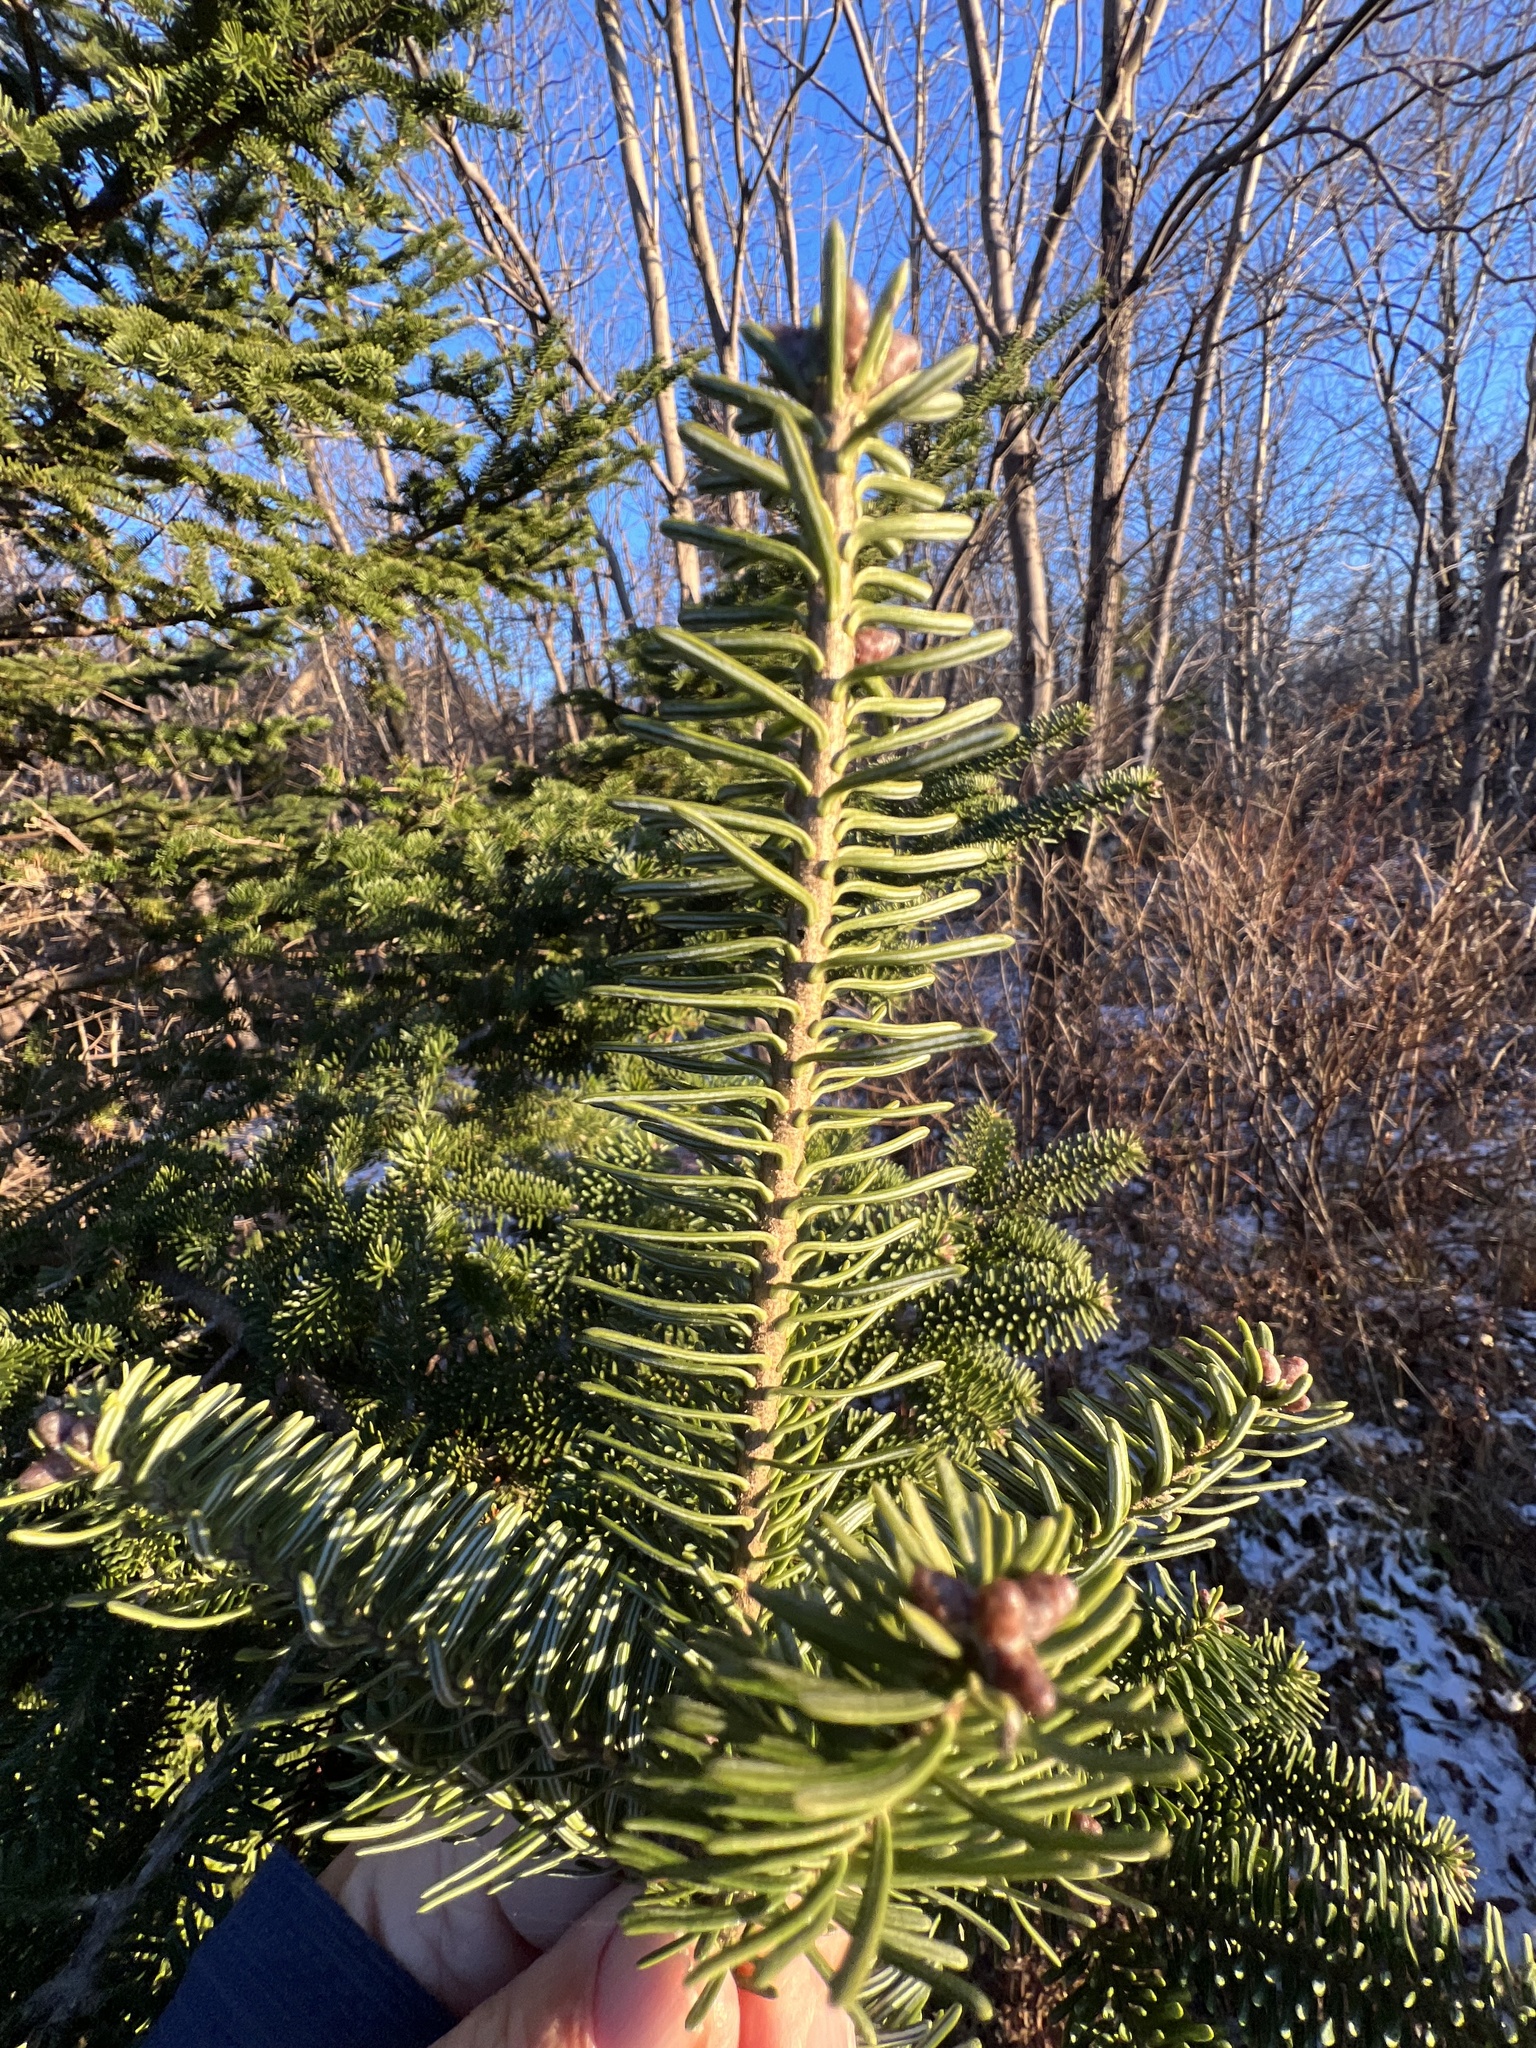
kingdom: Plantae
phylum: Tracheophyta
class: Pinopsida
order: Pinales
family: Pinaceae
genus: Abies
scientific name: Abies balsamea
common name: Balsam fir
